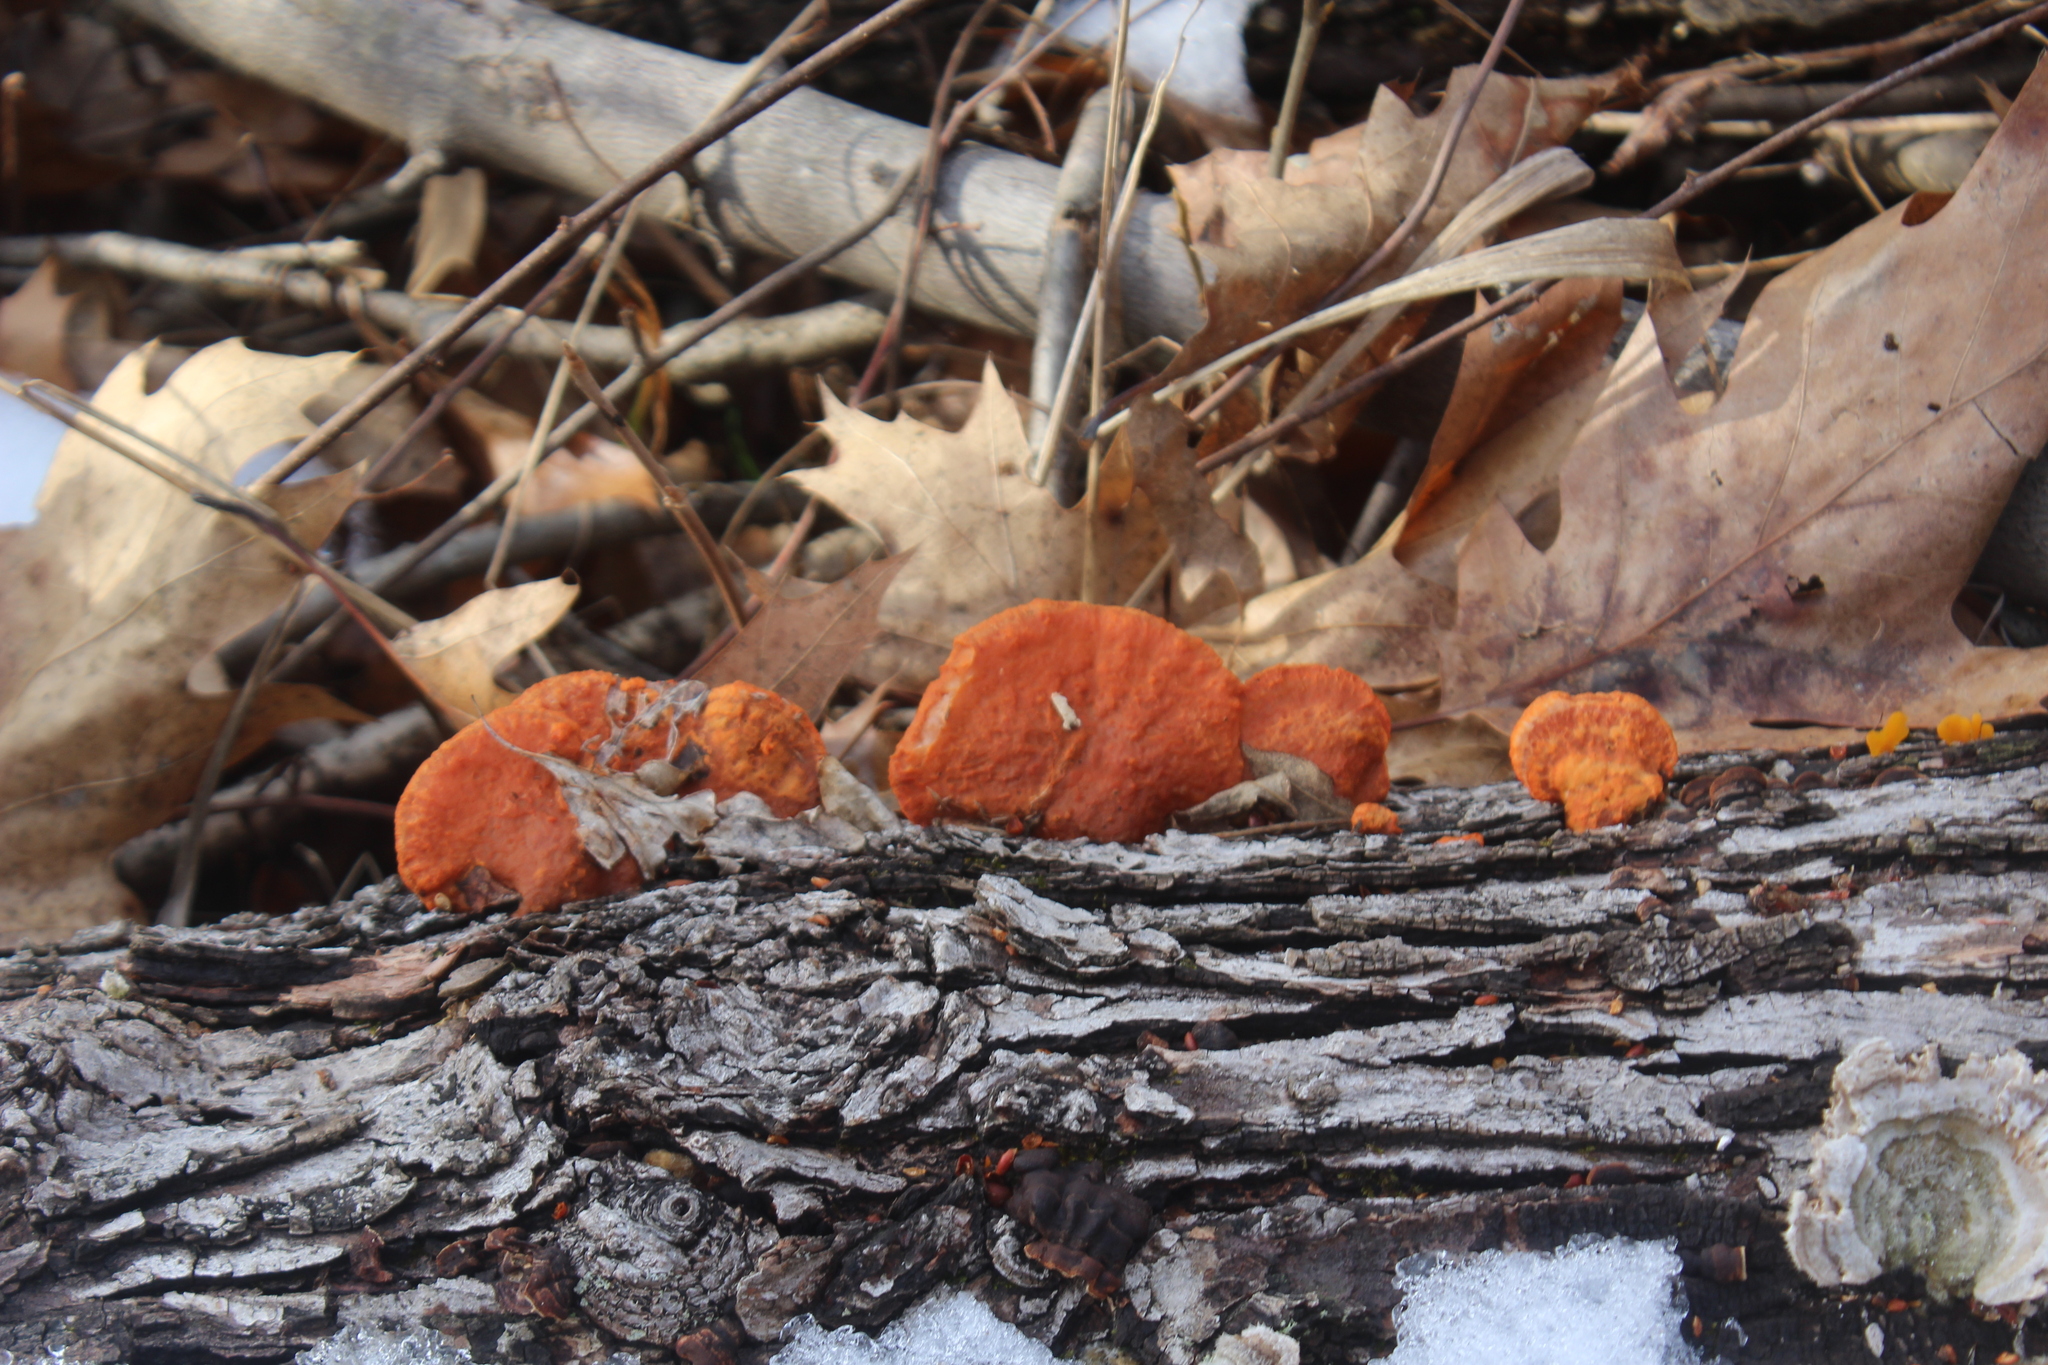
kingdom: Fungi
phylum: Basidiomycota
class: Agaricomycetes
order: Polyporales
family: Polyporaceae
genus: Trametes
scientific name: Trametes cinnabarina
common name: Northern cinnabar polypore
